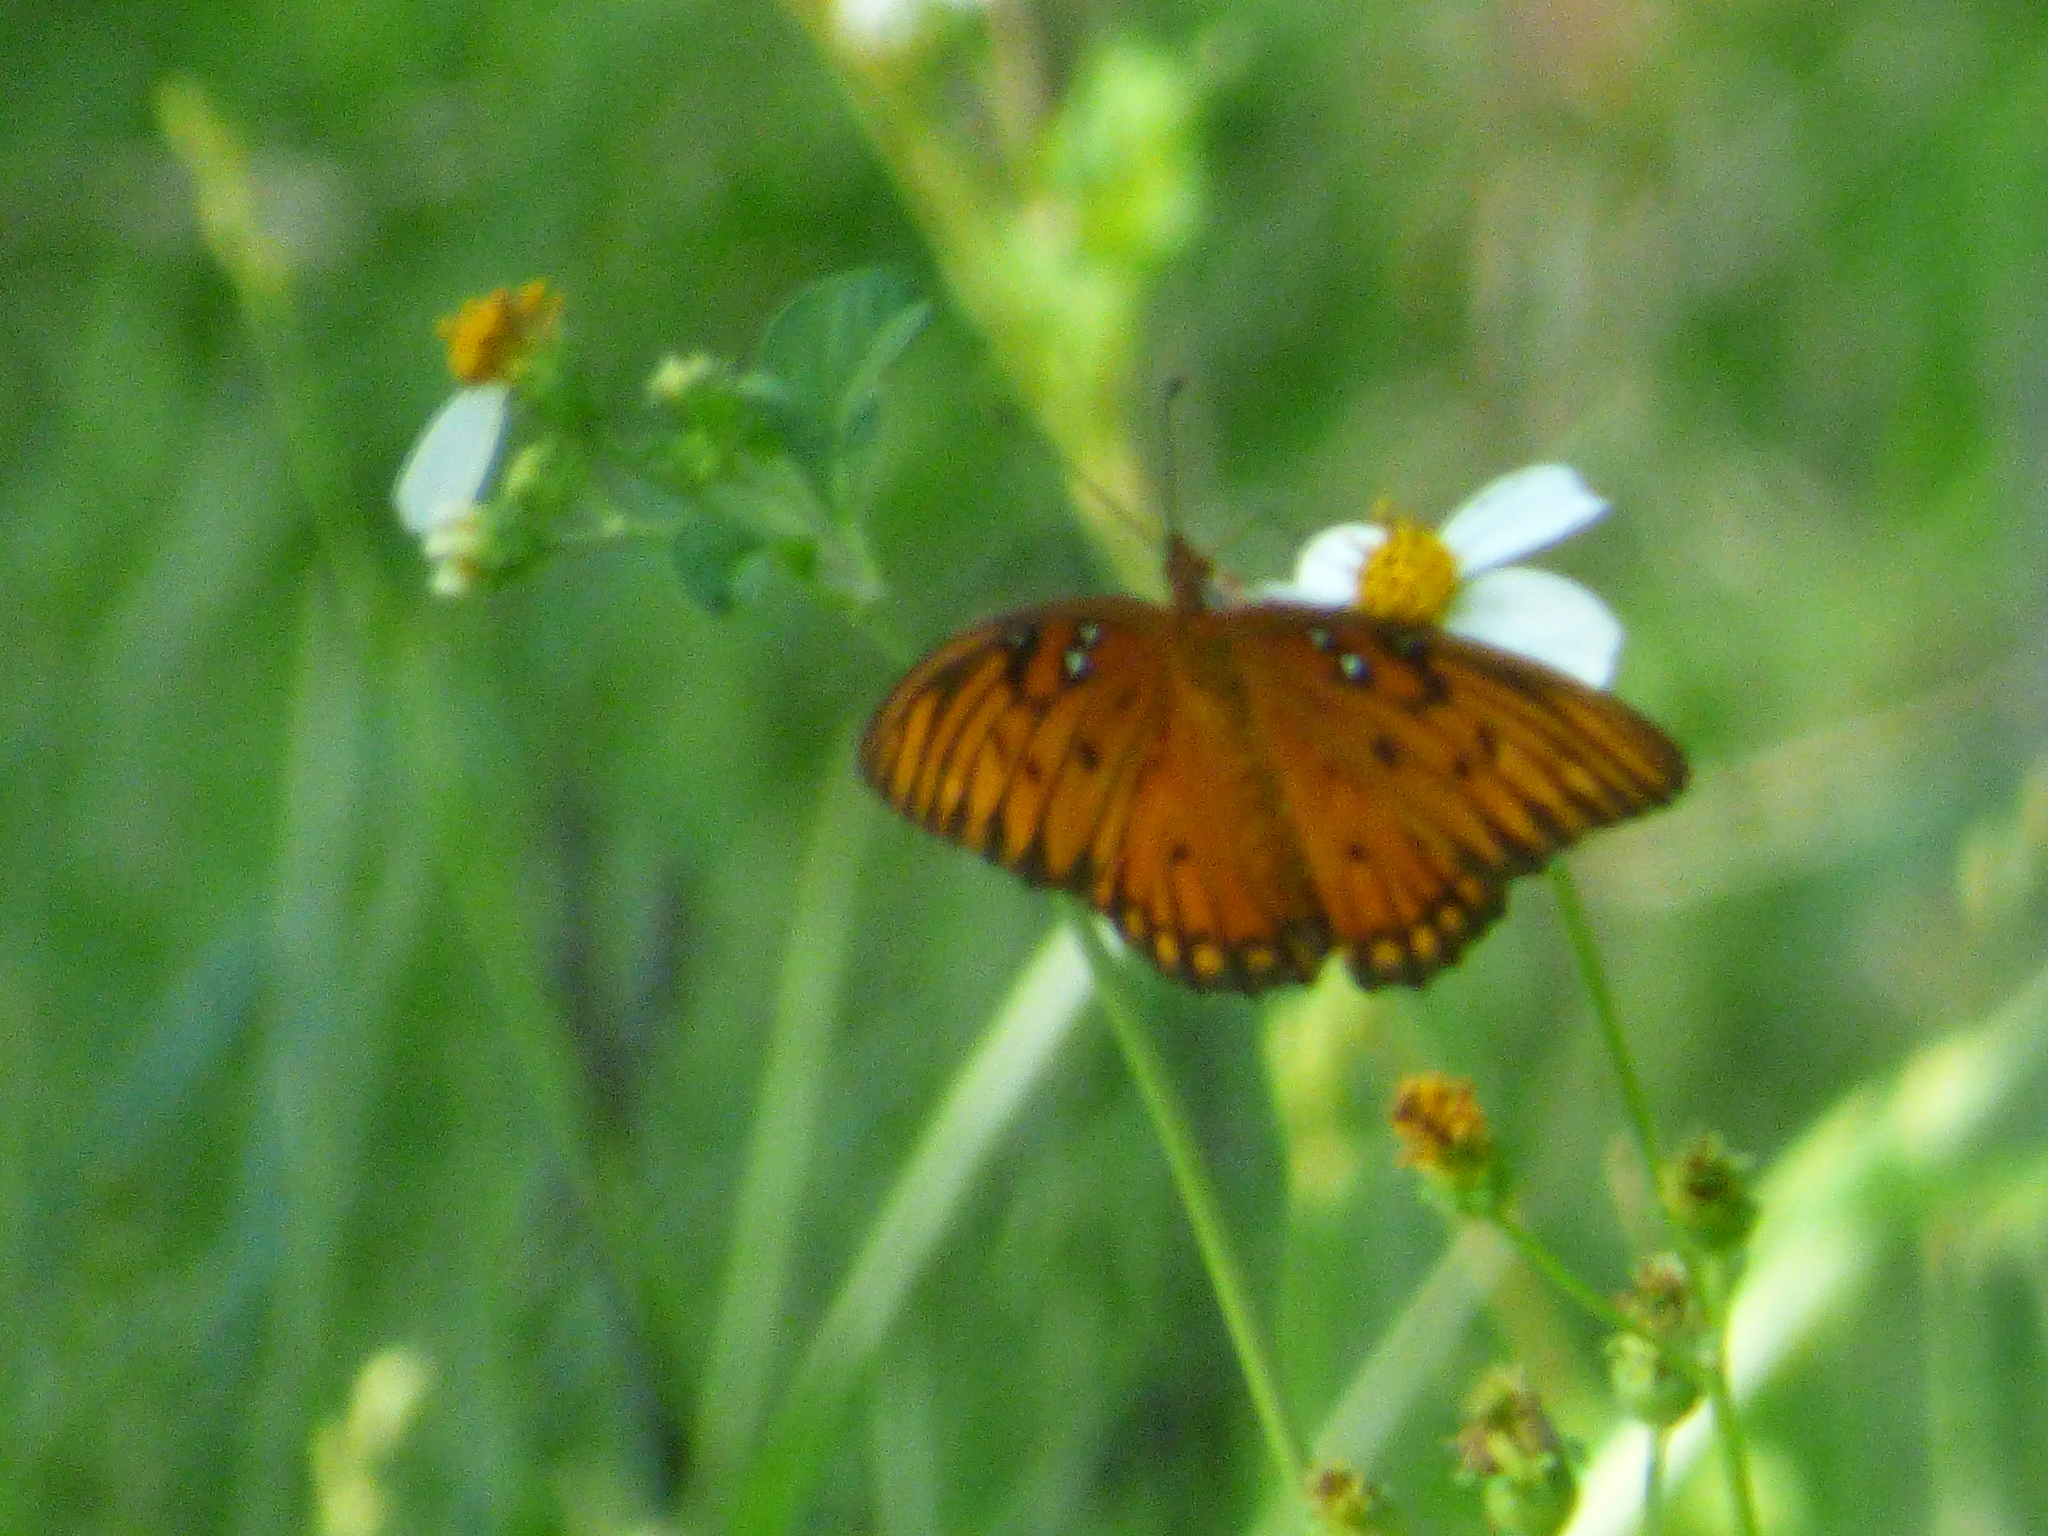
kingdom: Animalia
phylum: Arthropoda
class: Insecta
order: Lepidoptera
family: Nymphalidae
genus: Dione
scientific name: Dione vanillae
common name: Gulf fritillary
